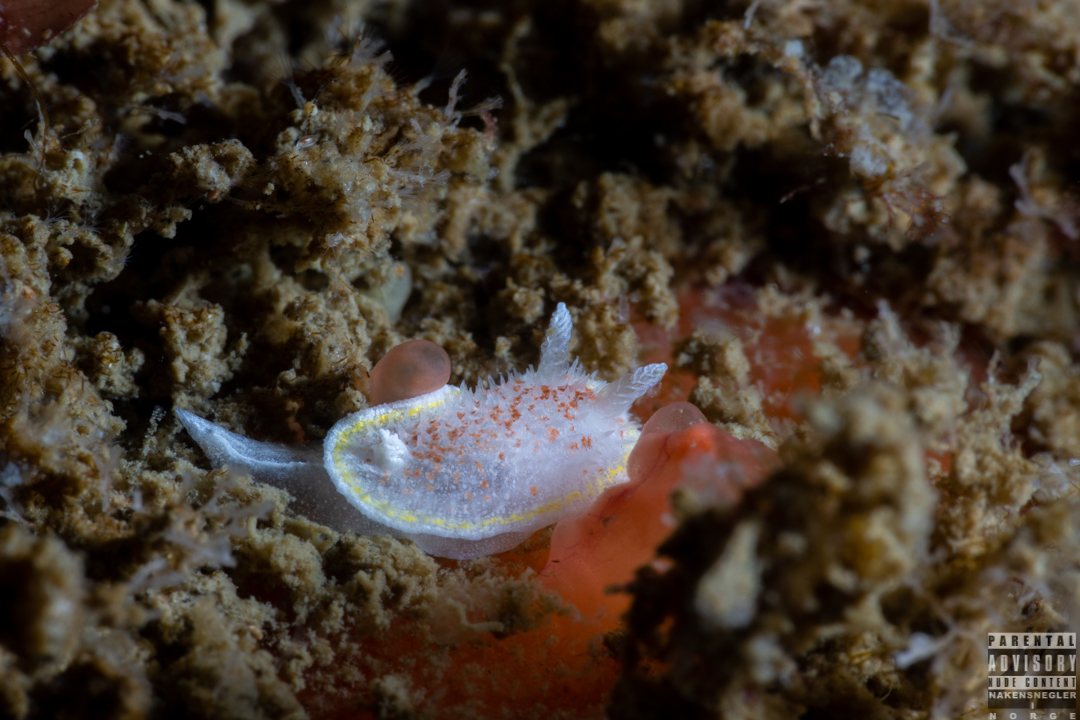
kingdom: Animalia
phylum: Mollusca
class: Gastropoda
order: Nudibranchia
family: Calycidorididae
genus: Diaphorodoris
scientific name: Diaphorodoris luteocincta
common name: Fried egg nudibranch
